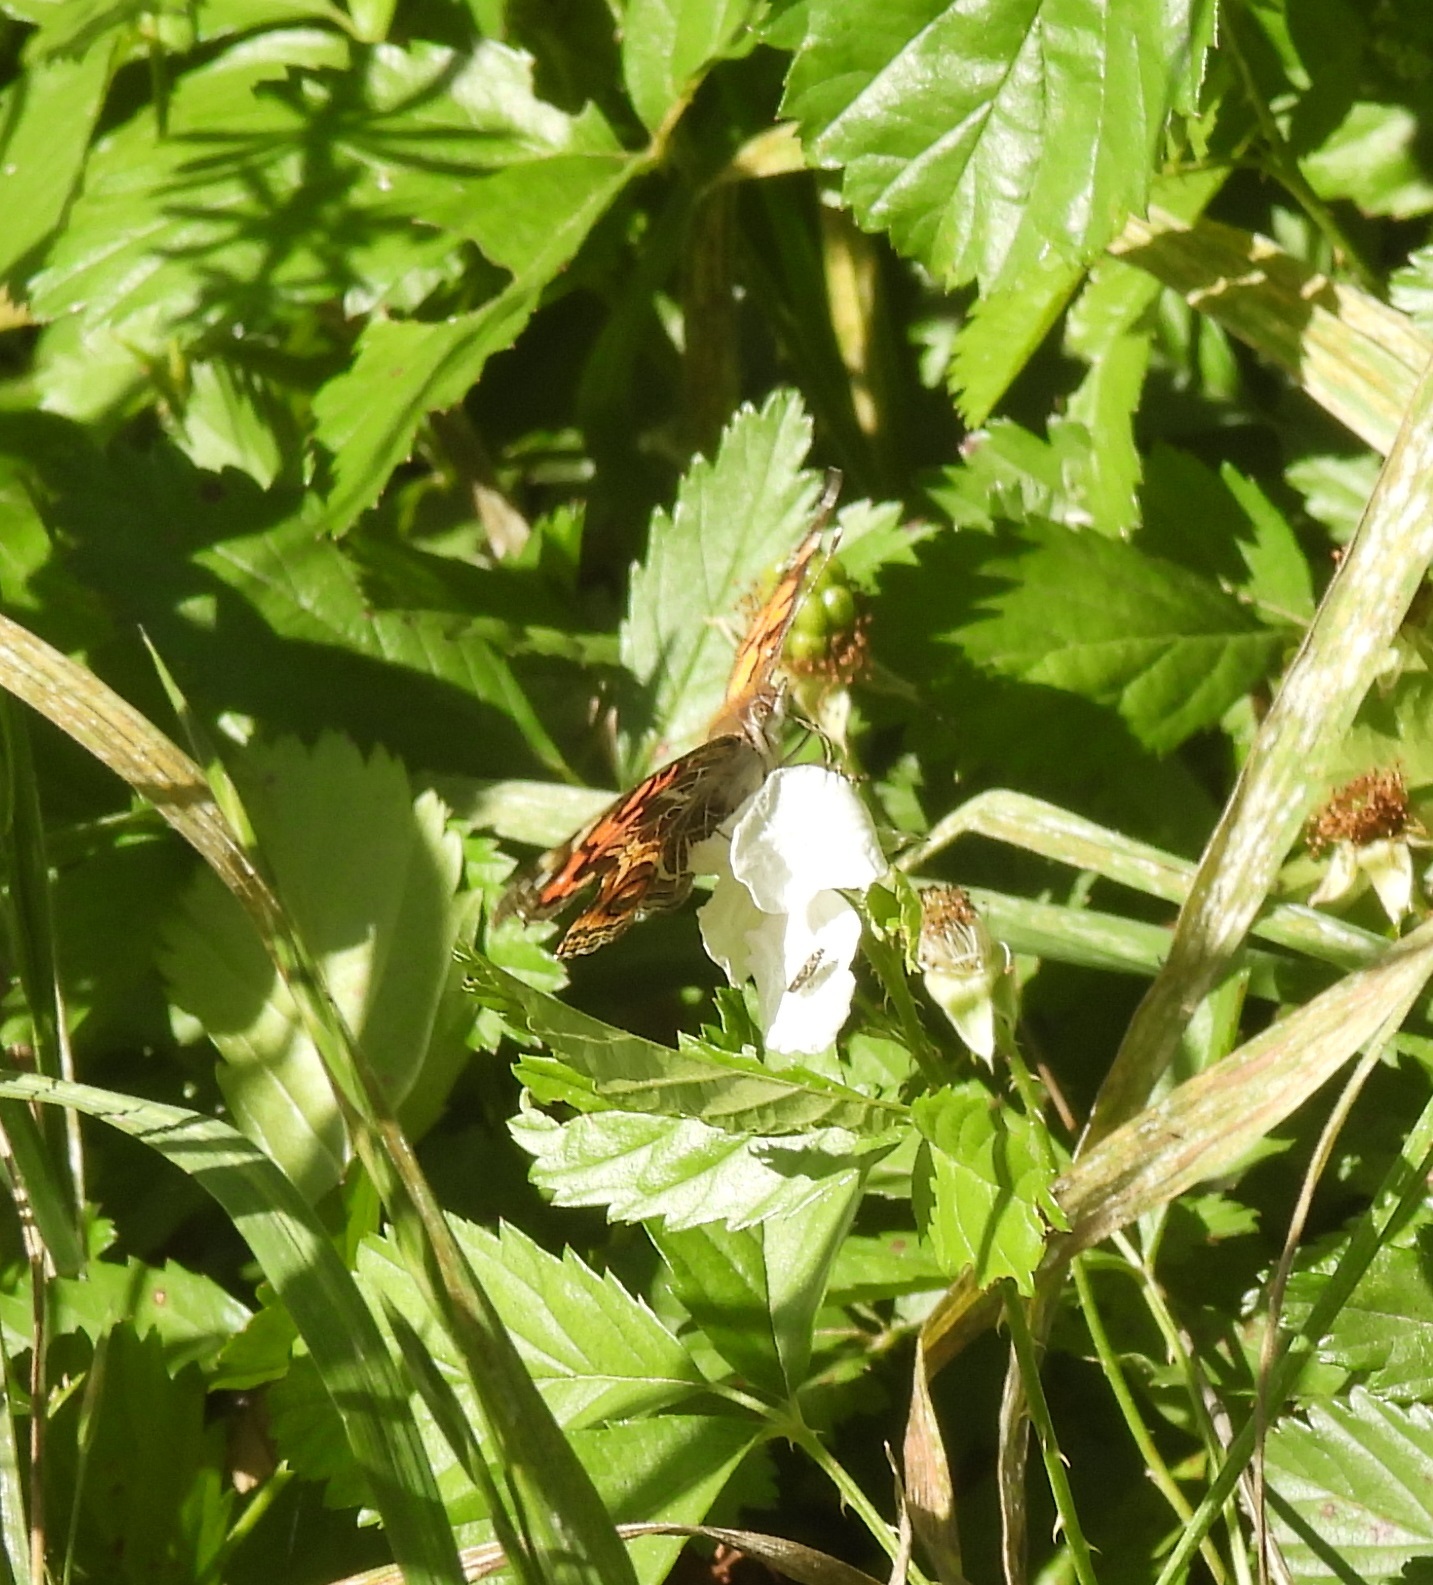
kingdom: Animalia
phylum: Arthropoda
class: Insecta
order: Lepidoptera
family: Nymphalidae
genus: Vanessa
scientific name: Vanessa virginiensis
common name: American lady
